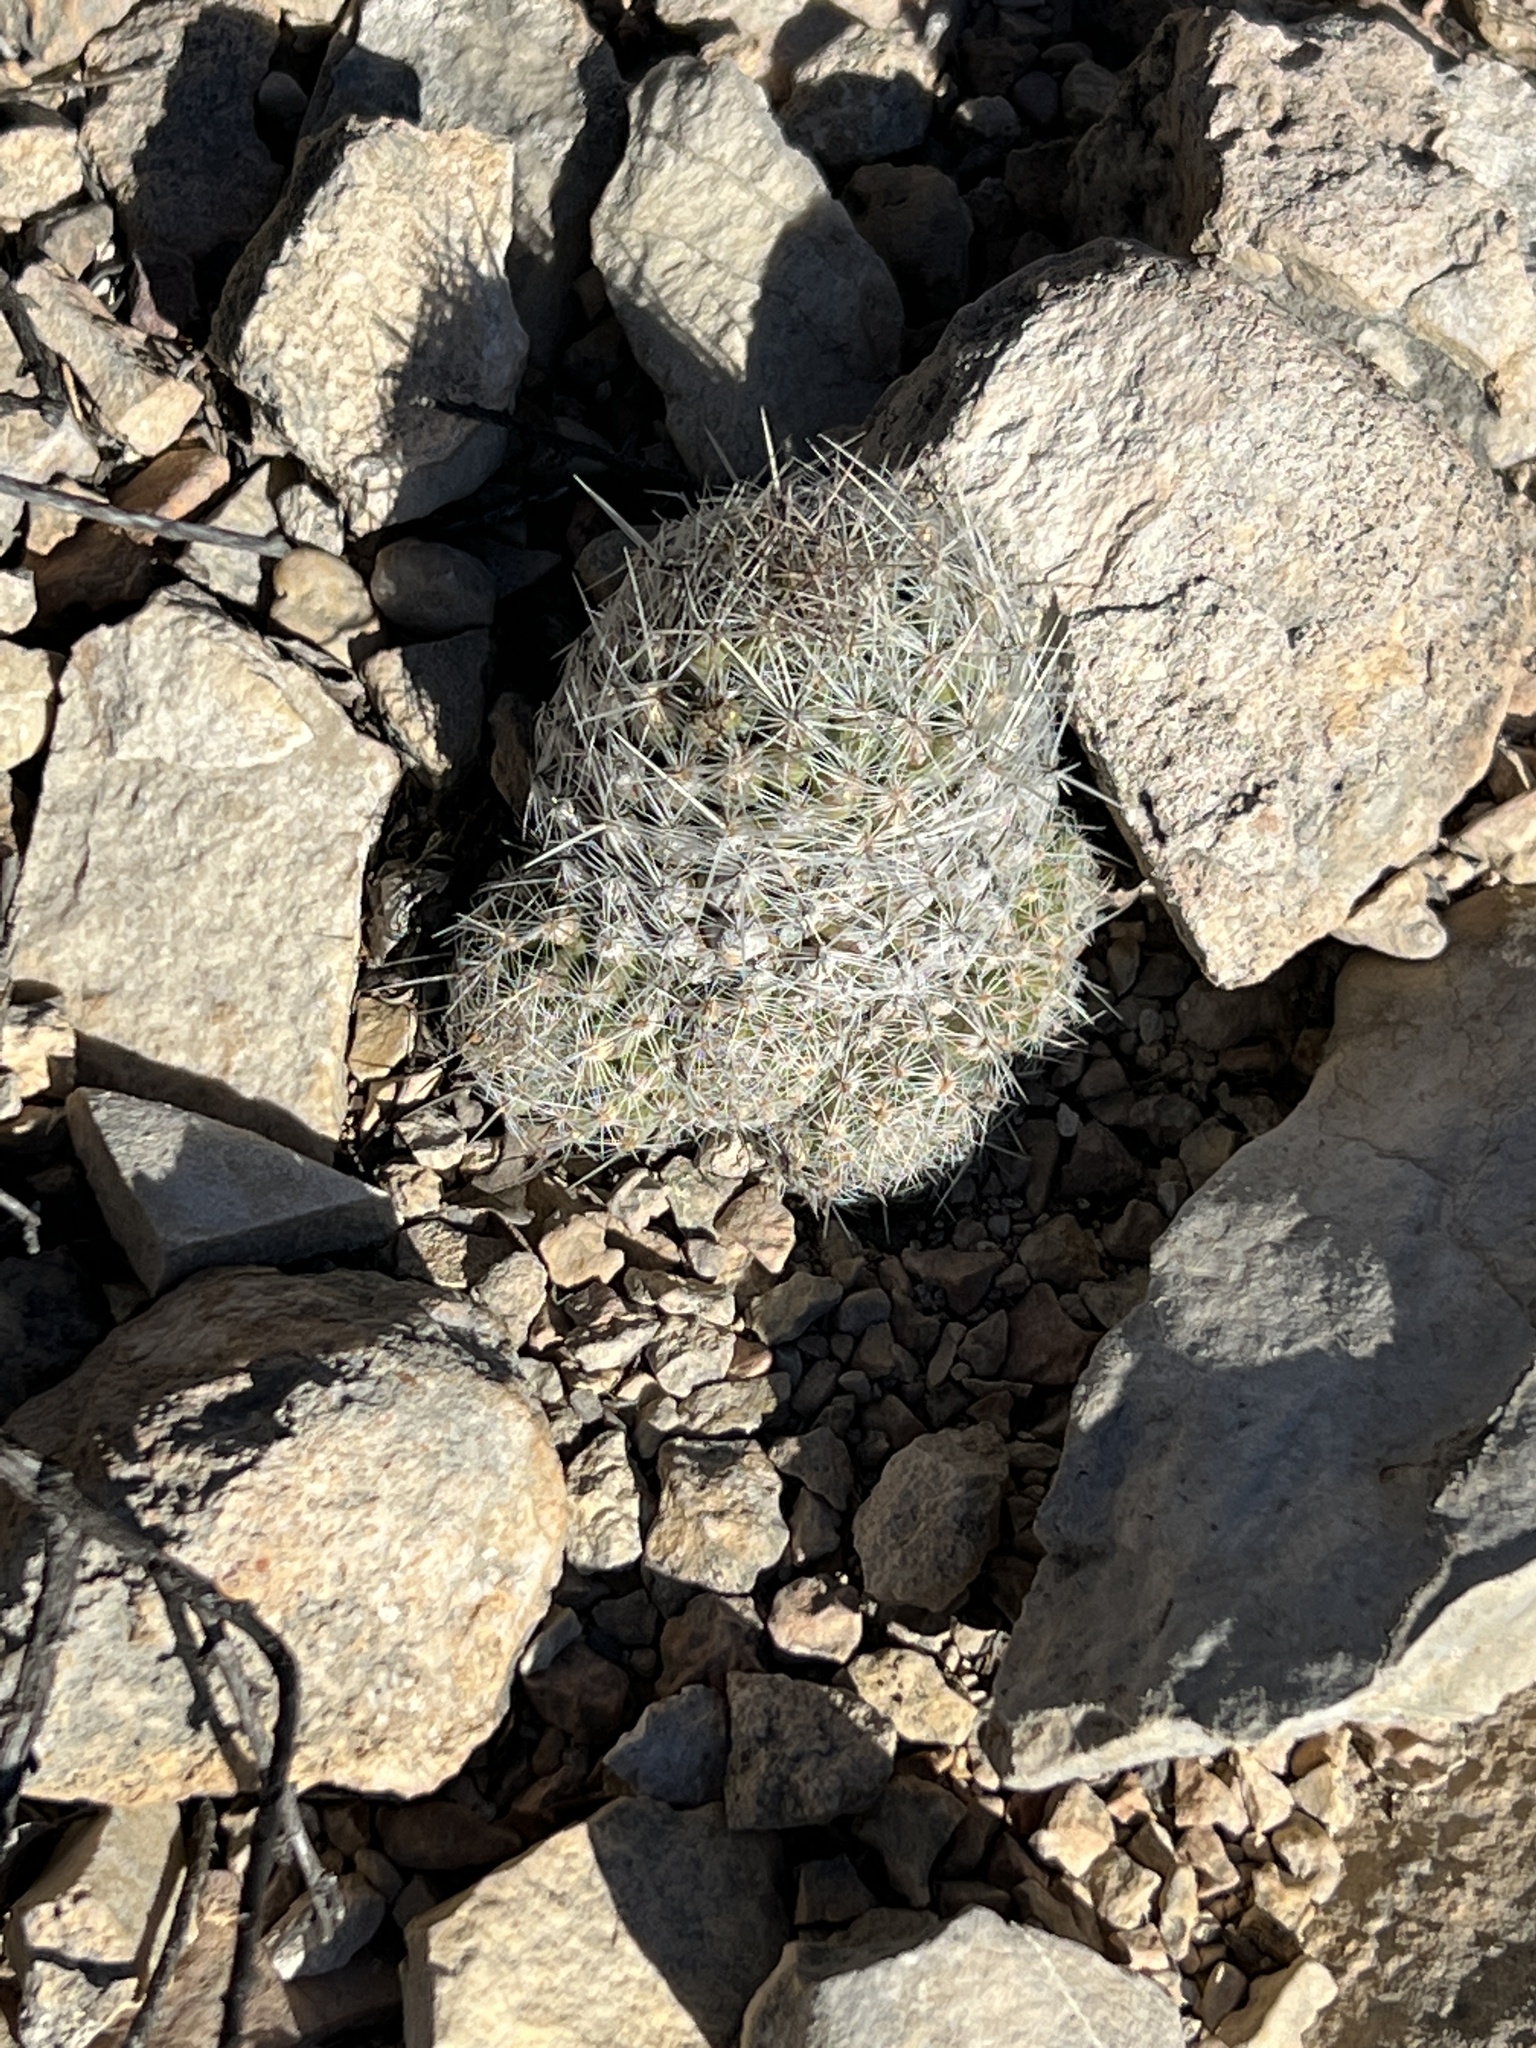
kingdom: Plantae
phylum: Tracheophyta
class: Magnoliopsida
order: Caryophyllales
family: Cactaceae
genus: Pelecyphora
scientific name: Pelecyphora tuberculosa
